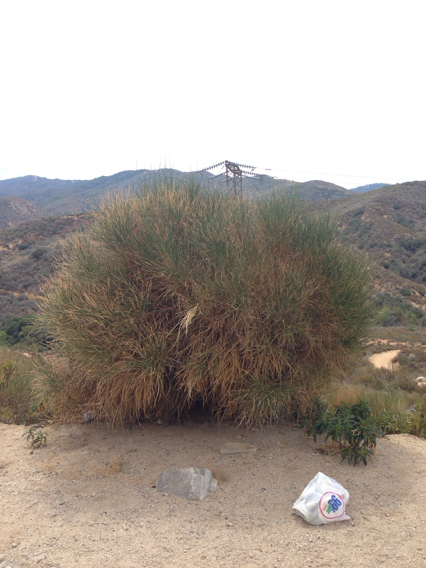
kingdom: Plantae
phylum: Tracheophyta
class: Magnoliopsida
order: Fabales
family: Fabaceae
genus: Spartium
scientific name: Spartium junceum
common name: Spanish broom
